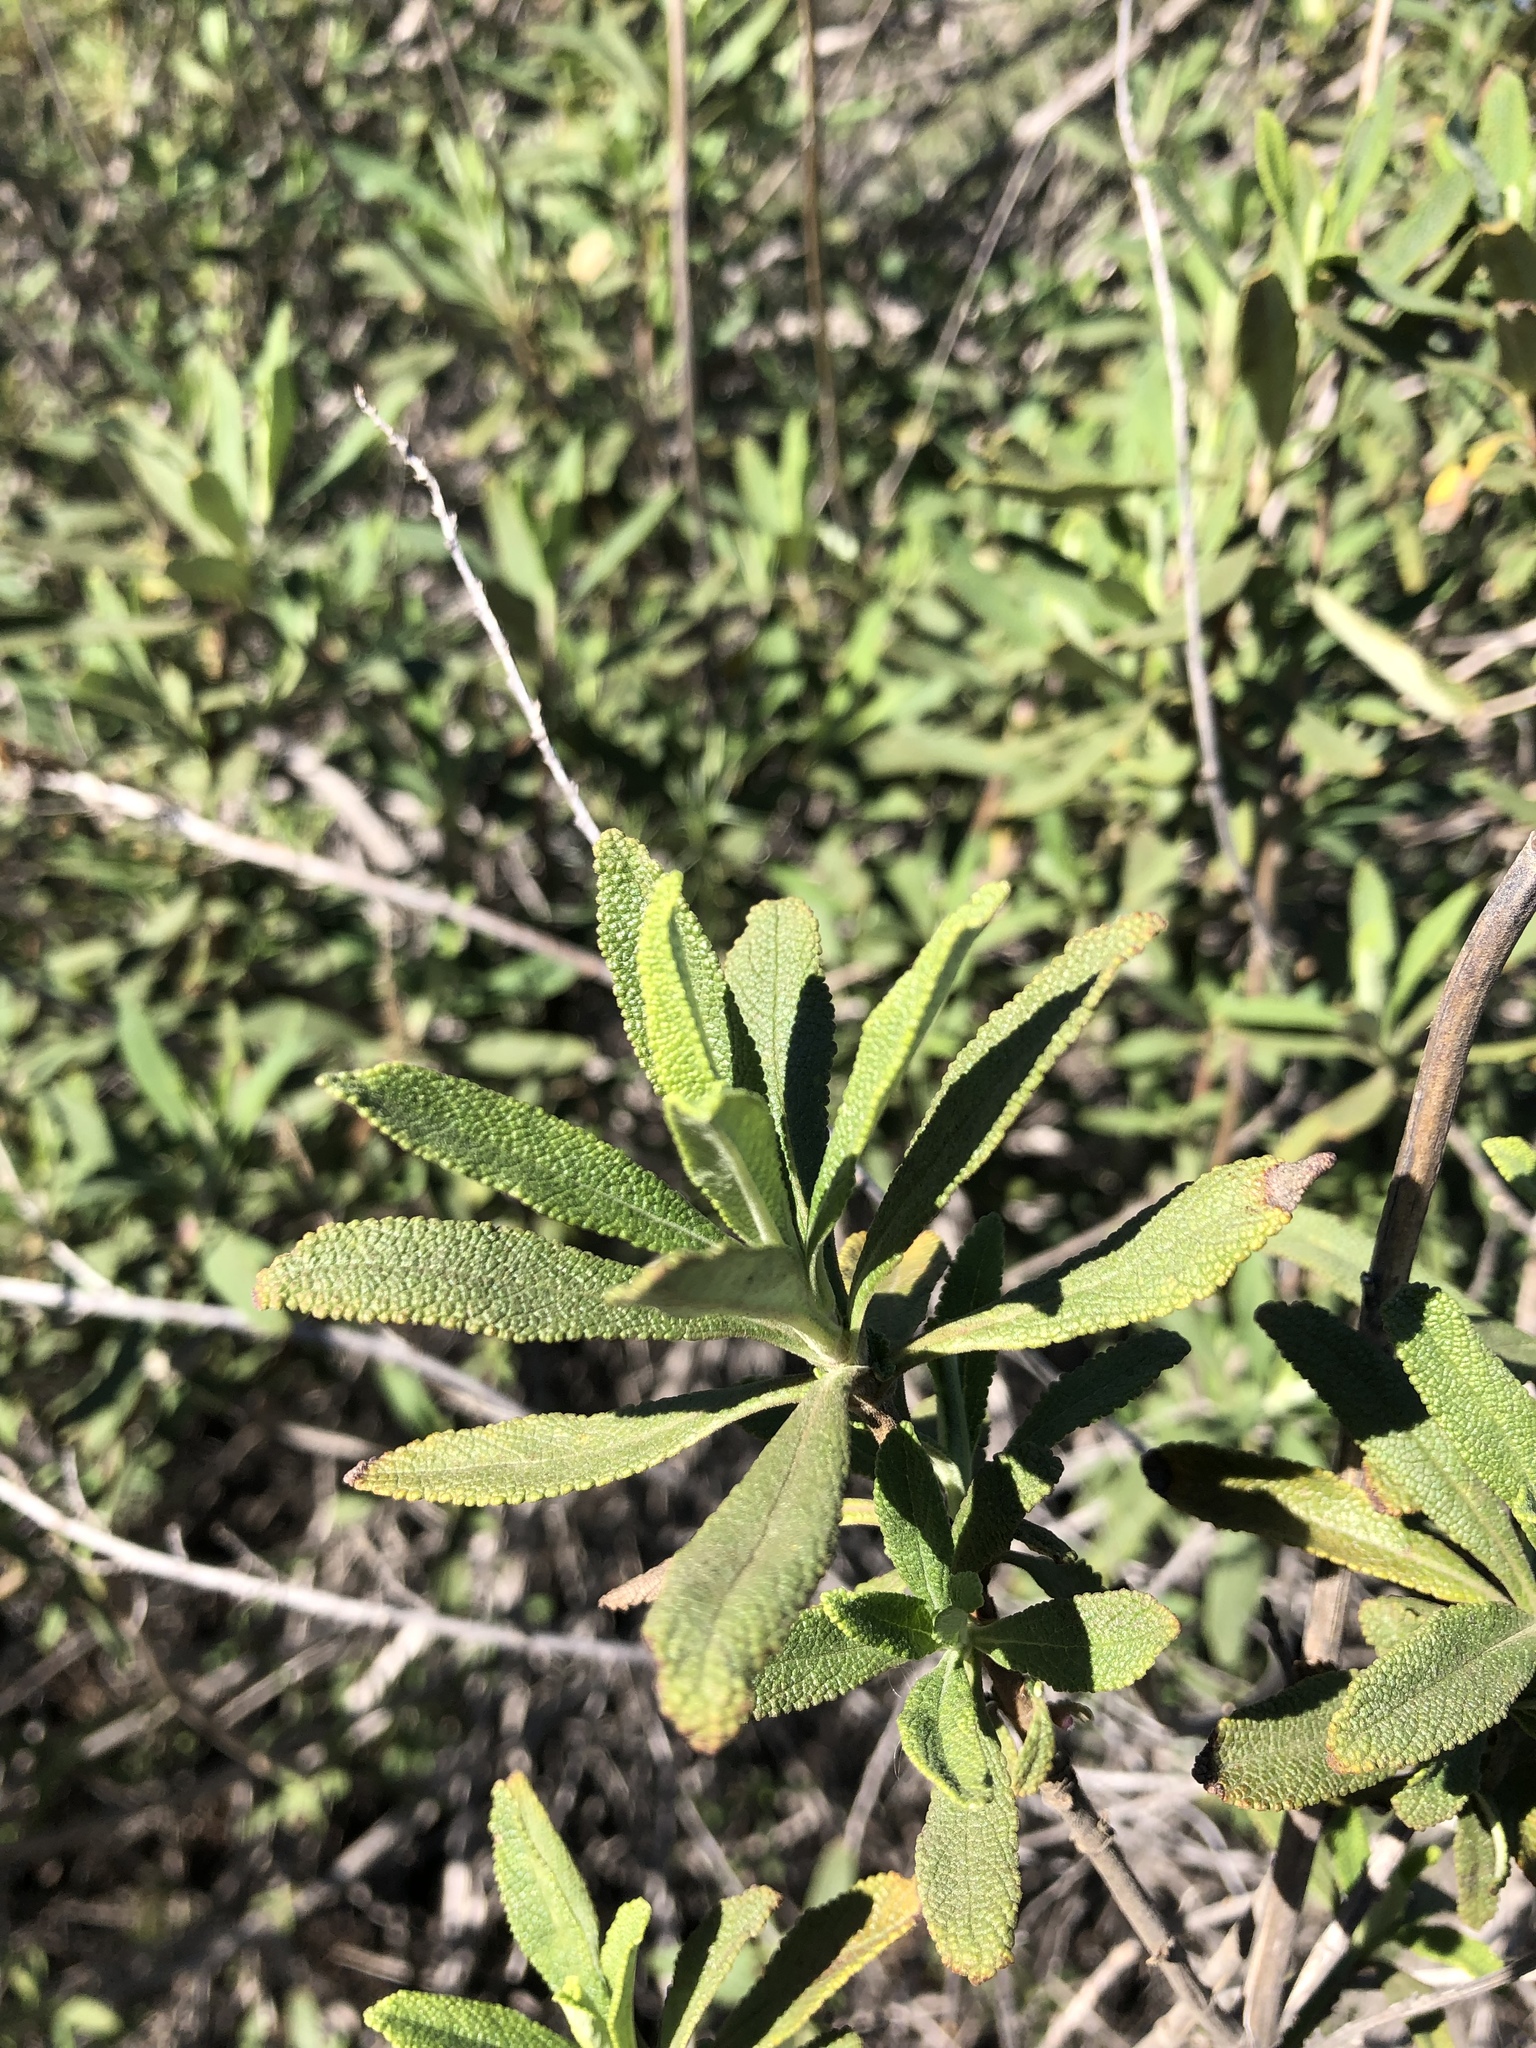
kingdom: Plantae
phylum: Tracheophyta
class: Magnoliopsida
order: Lamiales
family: Lamiaceae
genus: Salvia
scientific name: Salvia mellifera
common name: Black sage
